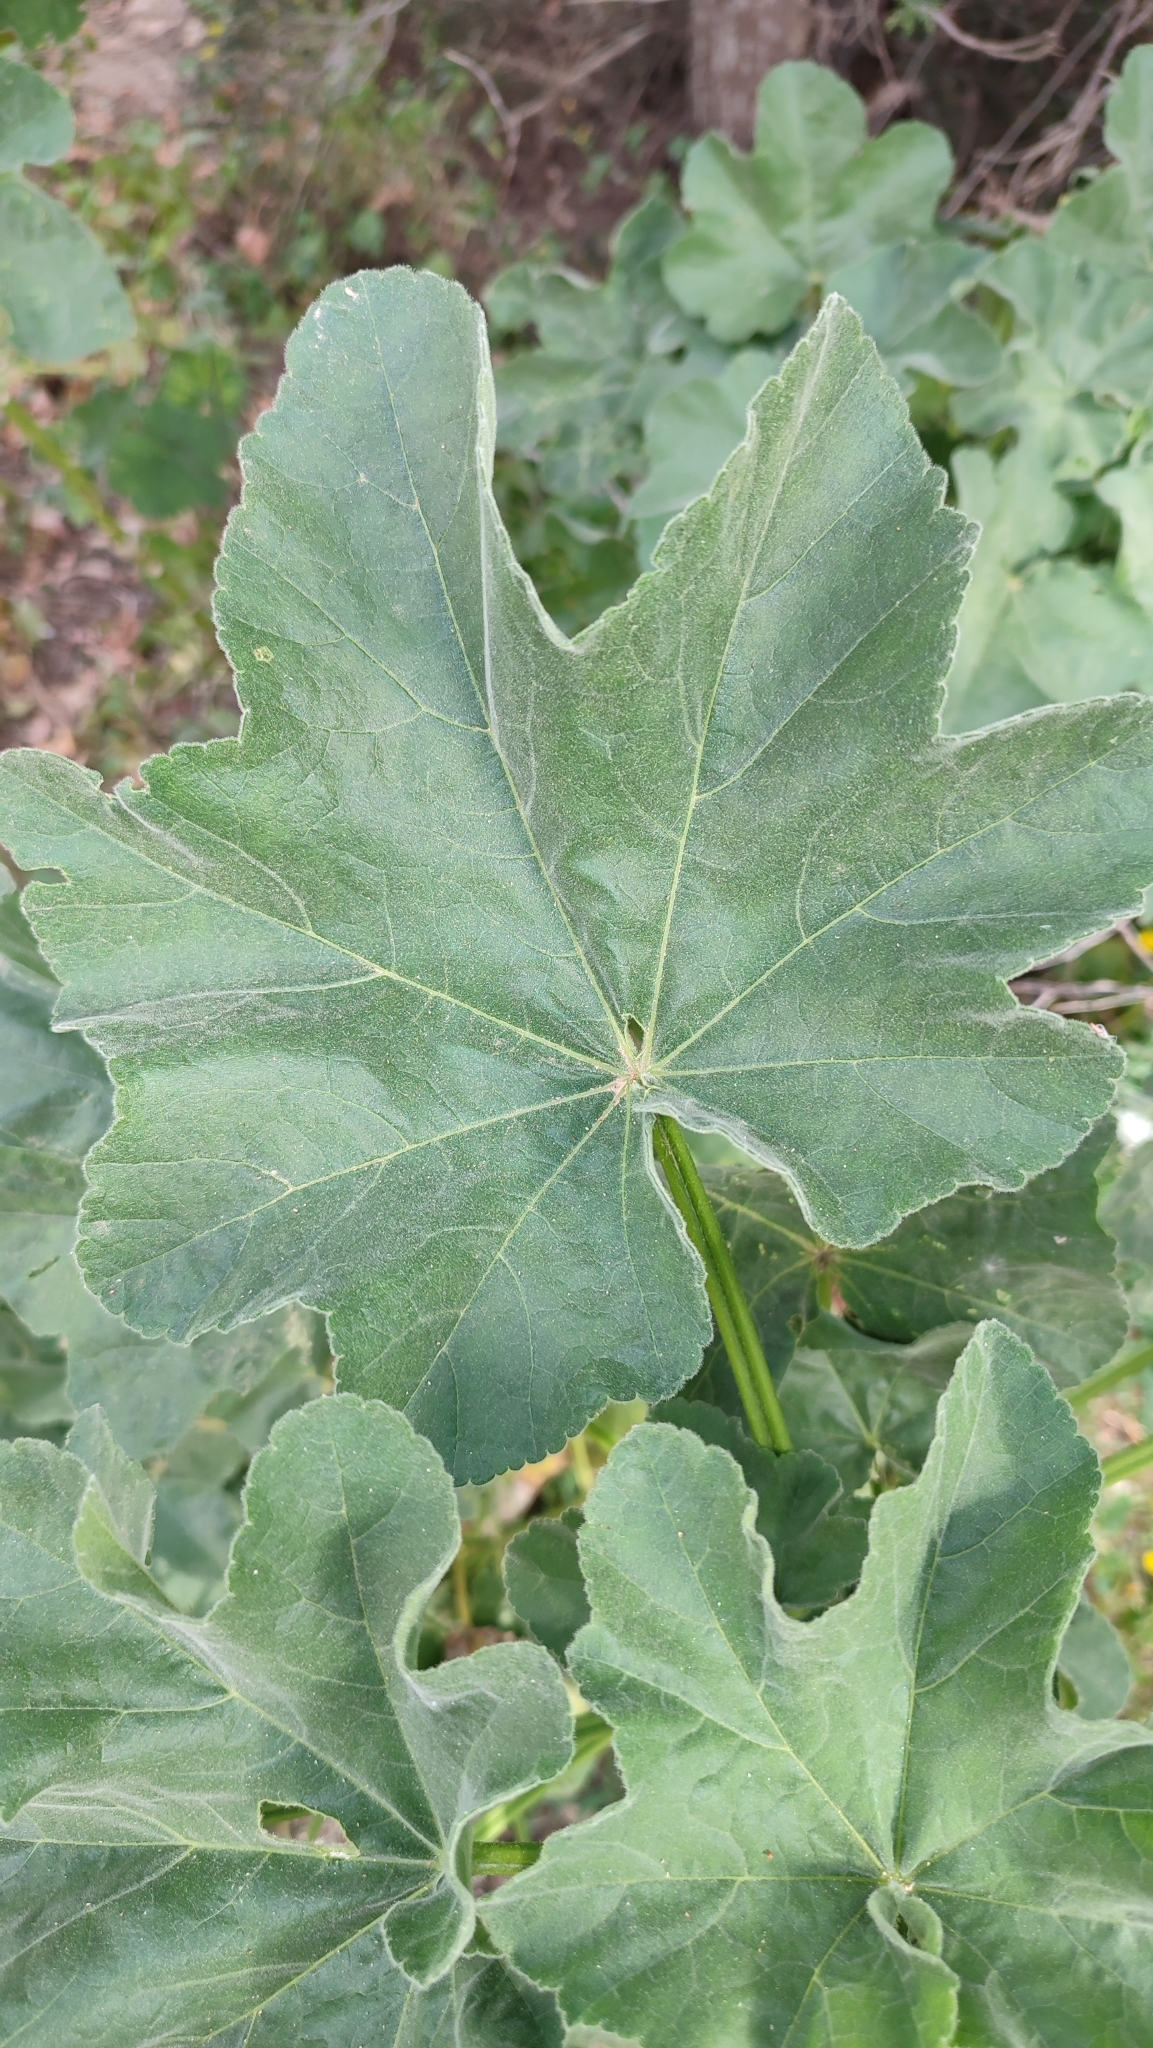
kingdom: Plantae
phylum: Tracheophyta
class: Magnoliopsida
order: Malvales
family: Malvaceae
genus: Malva
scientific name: Malva arborea
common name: Tree mallow
